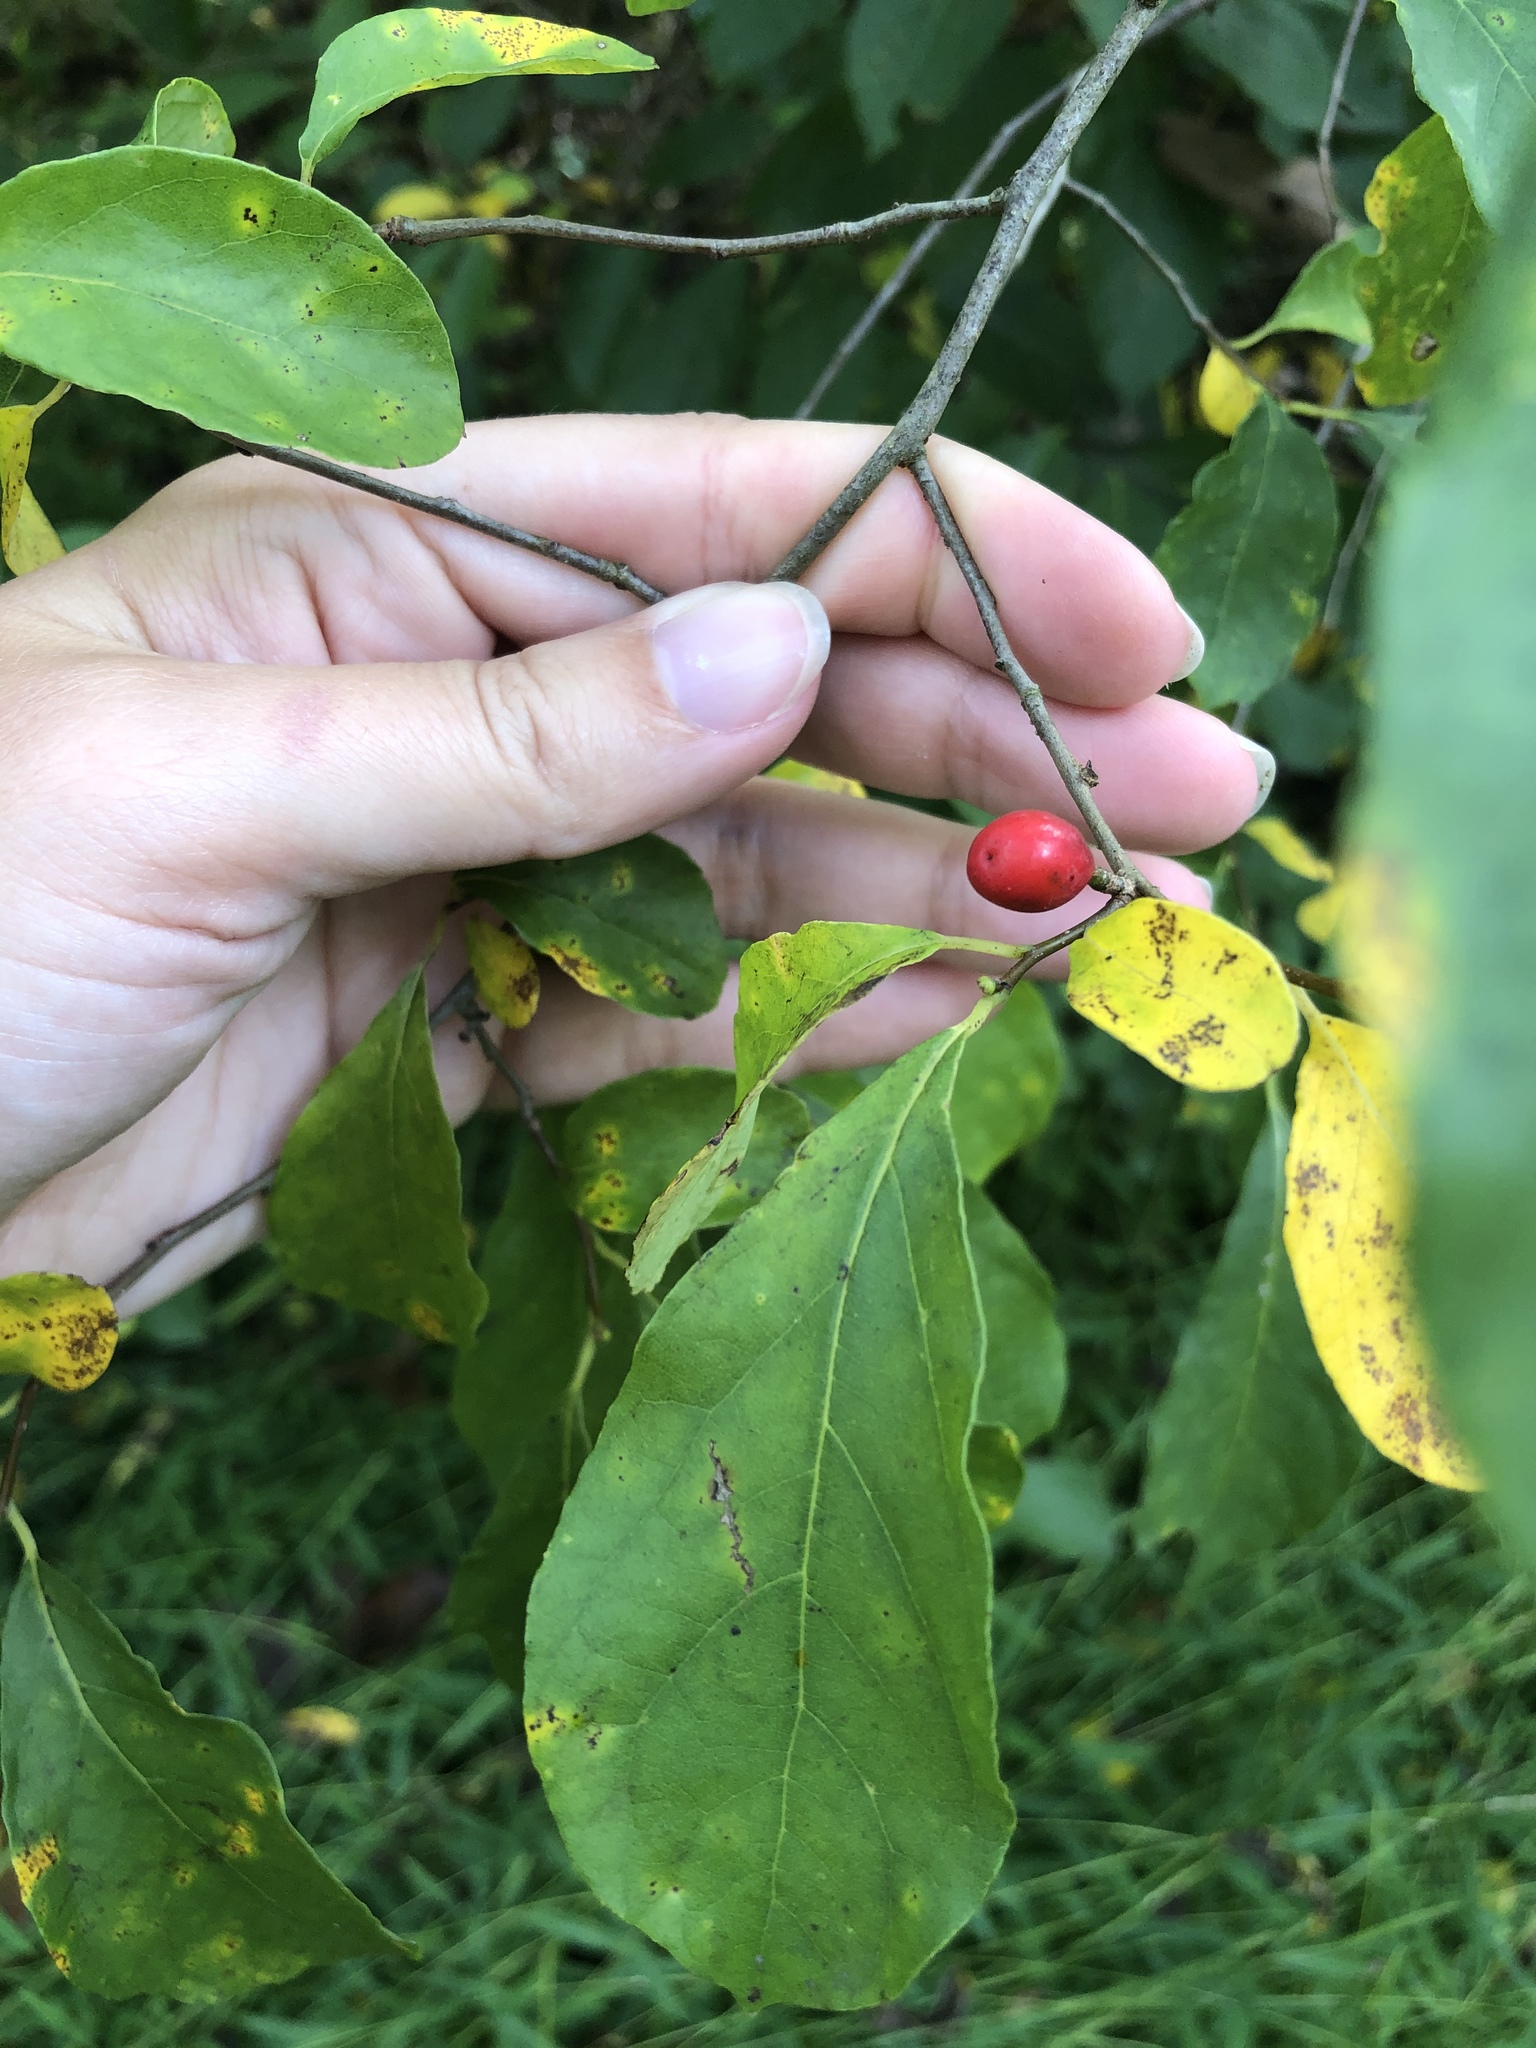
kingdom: Plantae
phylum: Tracheophyta
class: Magnoliopsida
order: Laurales
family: Lauraceae
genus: Lindera
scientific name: Lindera benzoin
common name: Spicebush
